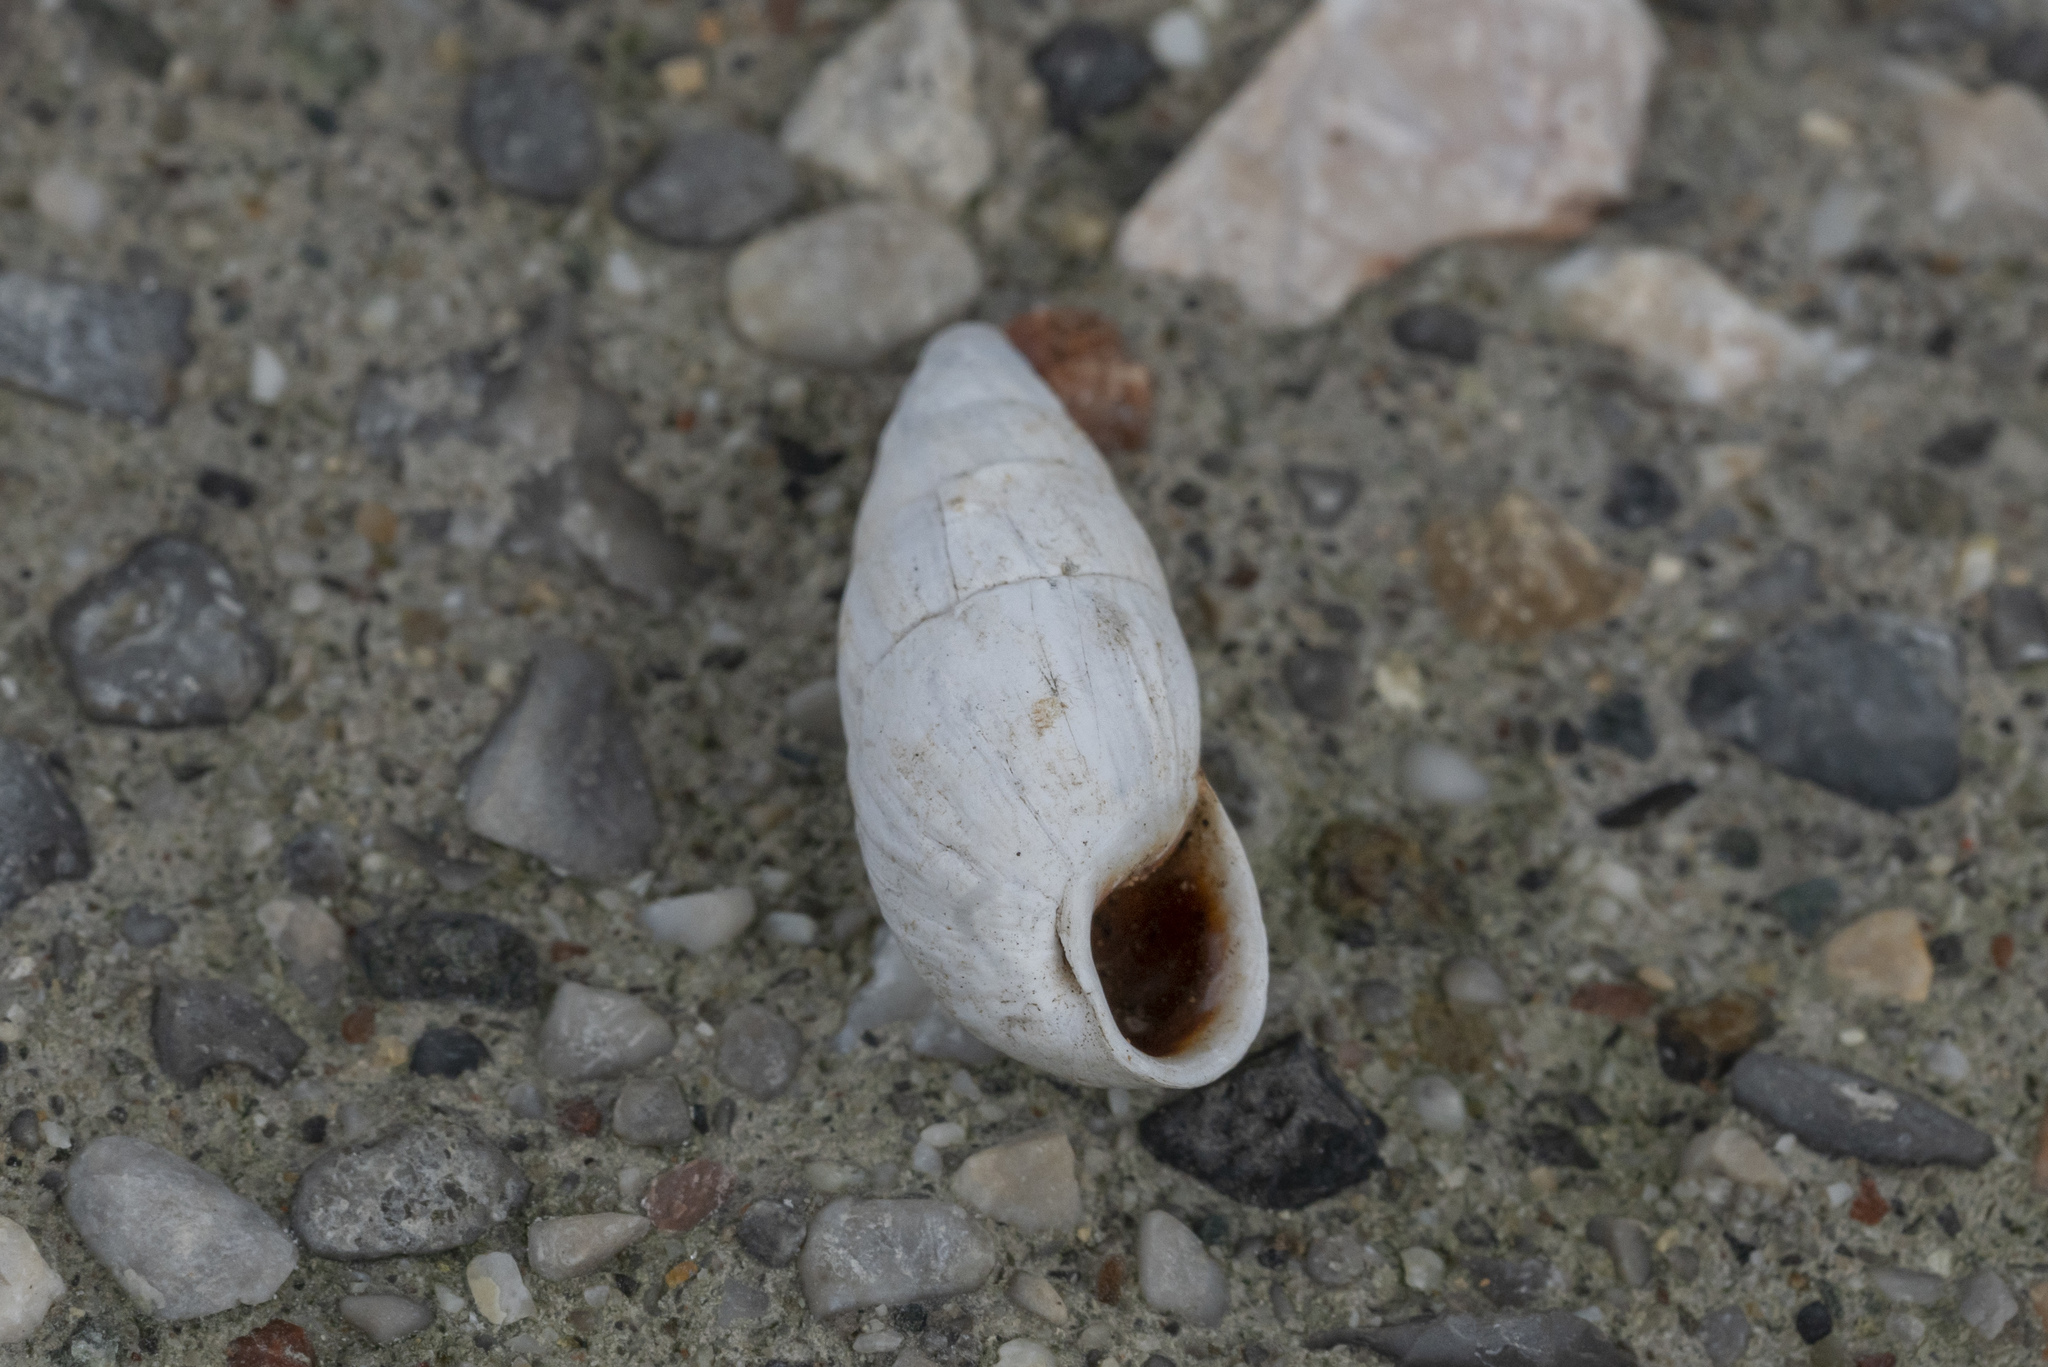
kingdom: Animalia
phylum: Mollusca
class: Gastropoda
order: Stylommatophora
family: Enidae
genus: Zebrina
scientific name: Zebrina fasciolata
